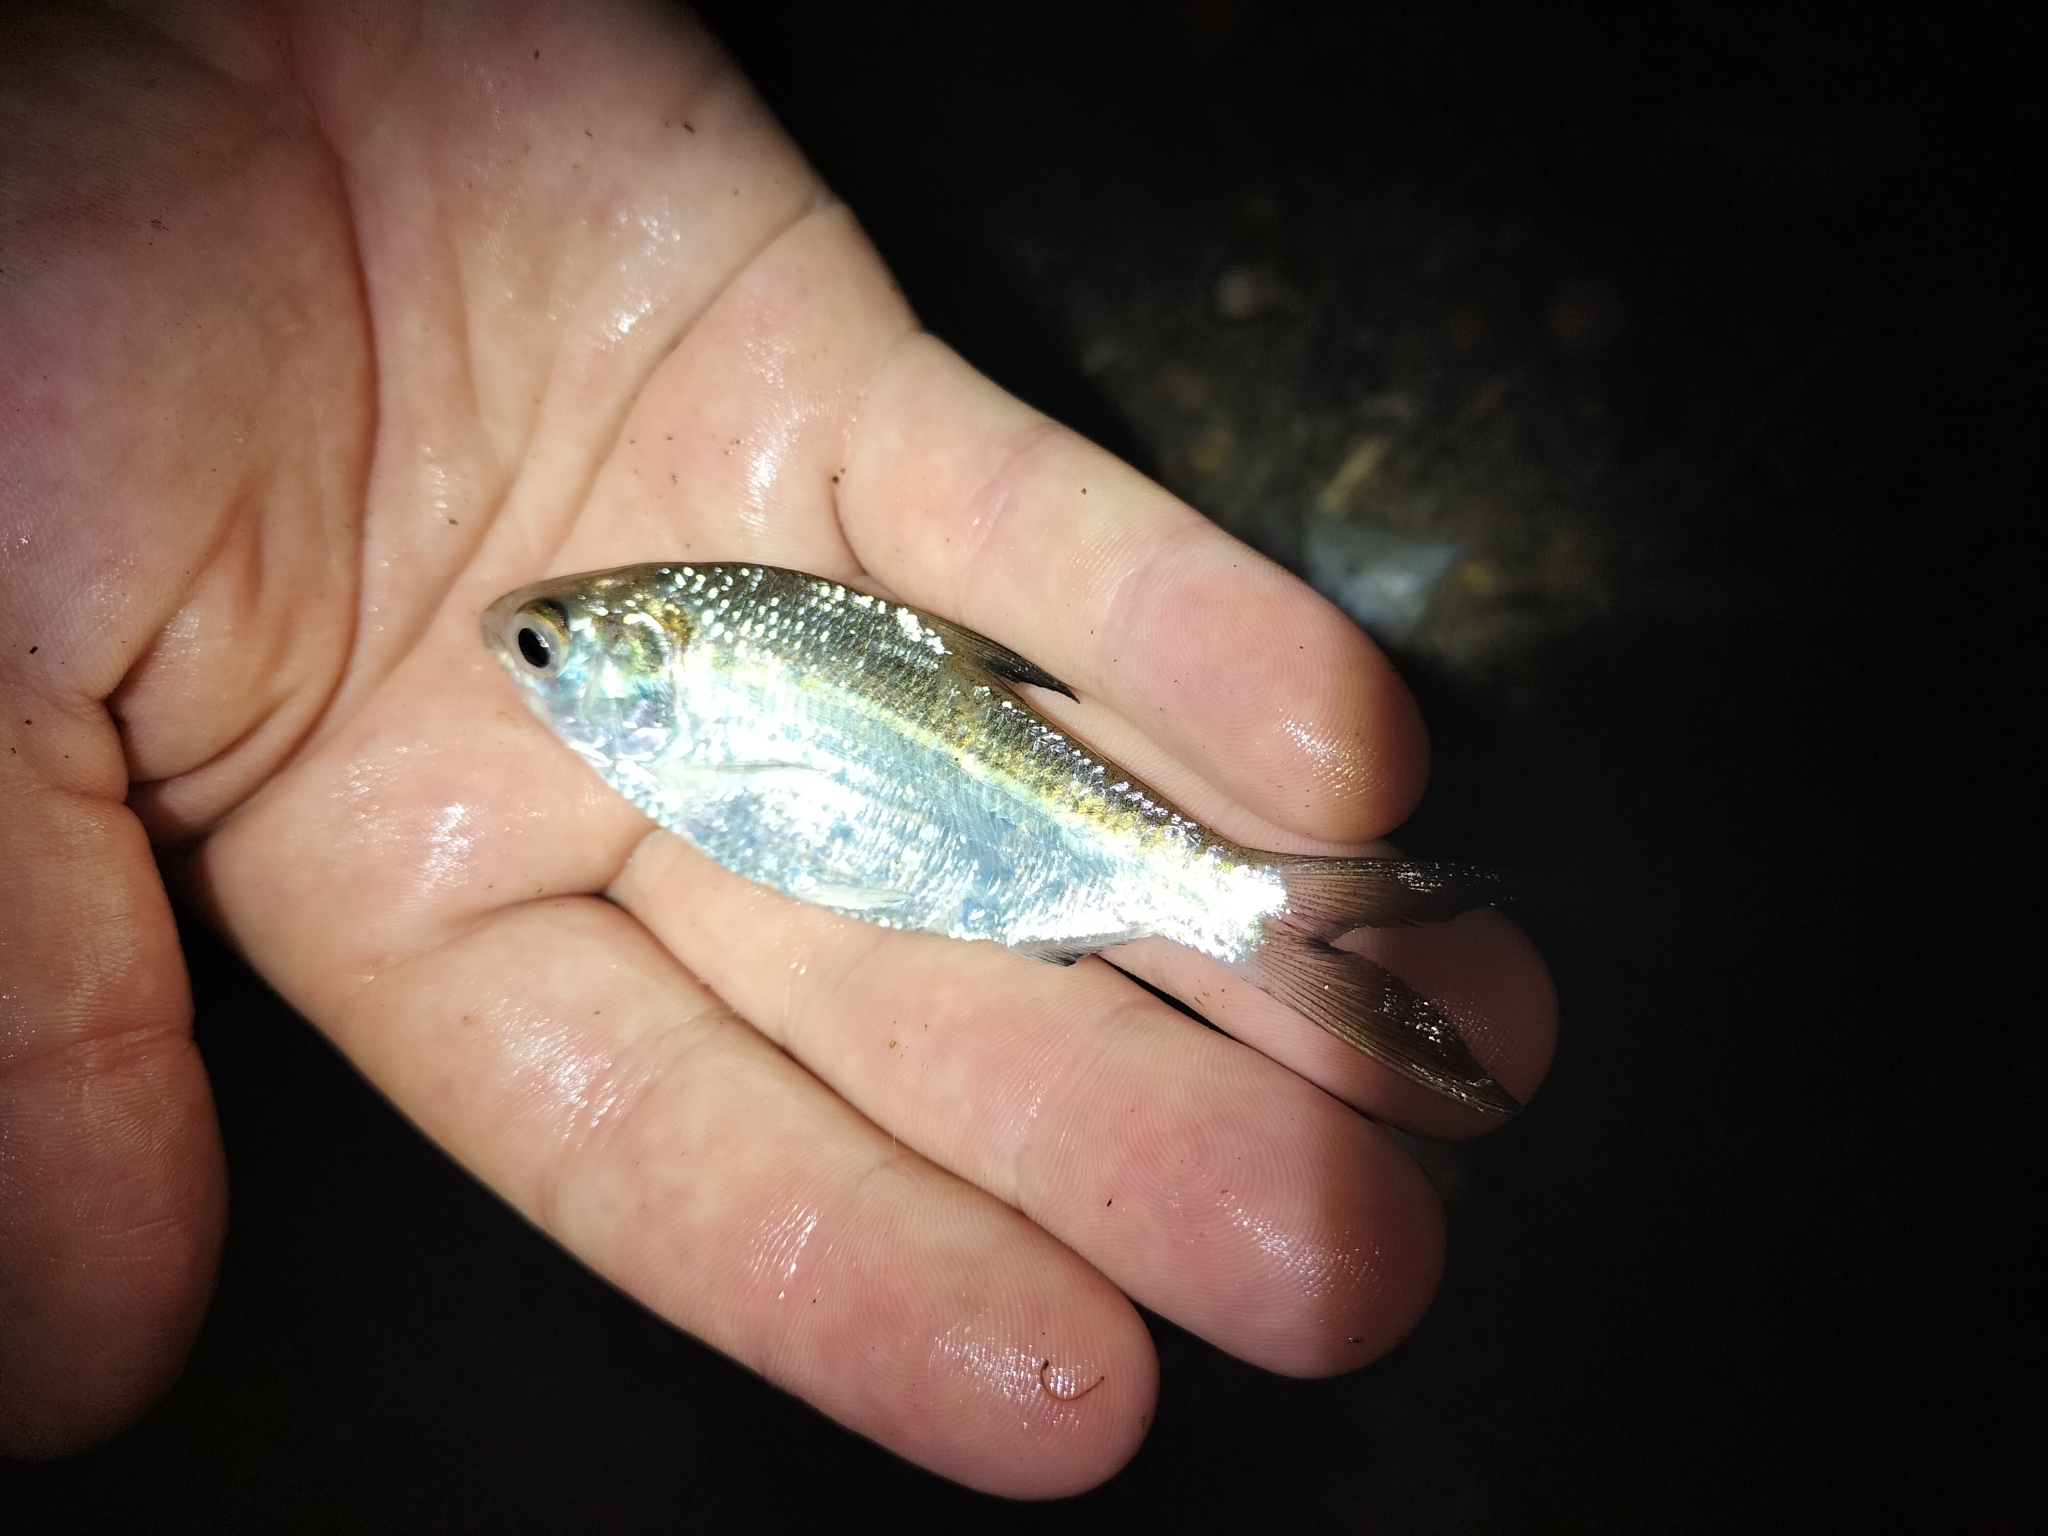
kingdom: Animalia
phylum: Chordata
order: Clupeiformes
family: Clupeidae
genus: Nematalosa
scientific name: Nematalosa erebi
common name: Australian river gizzard shad
